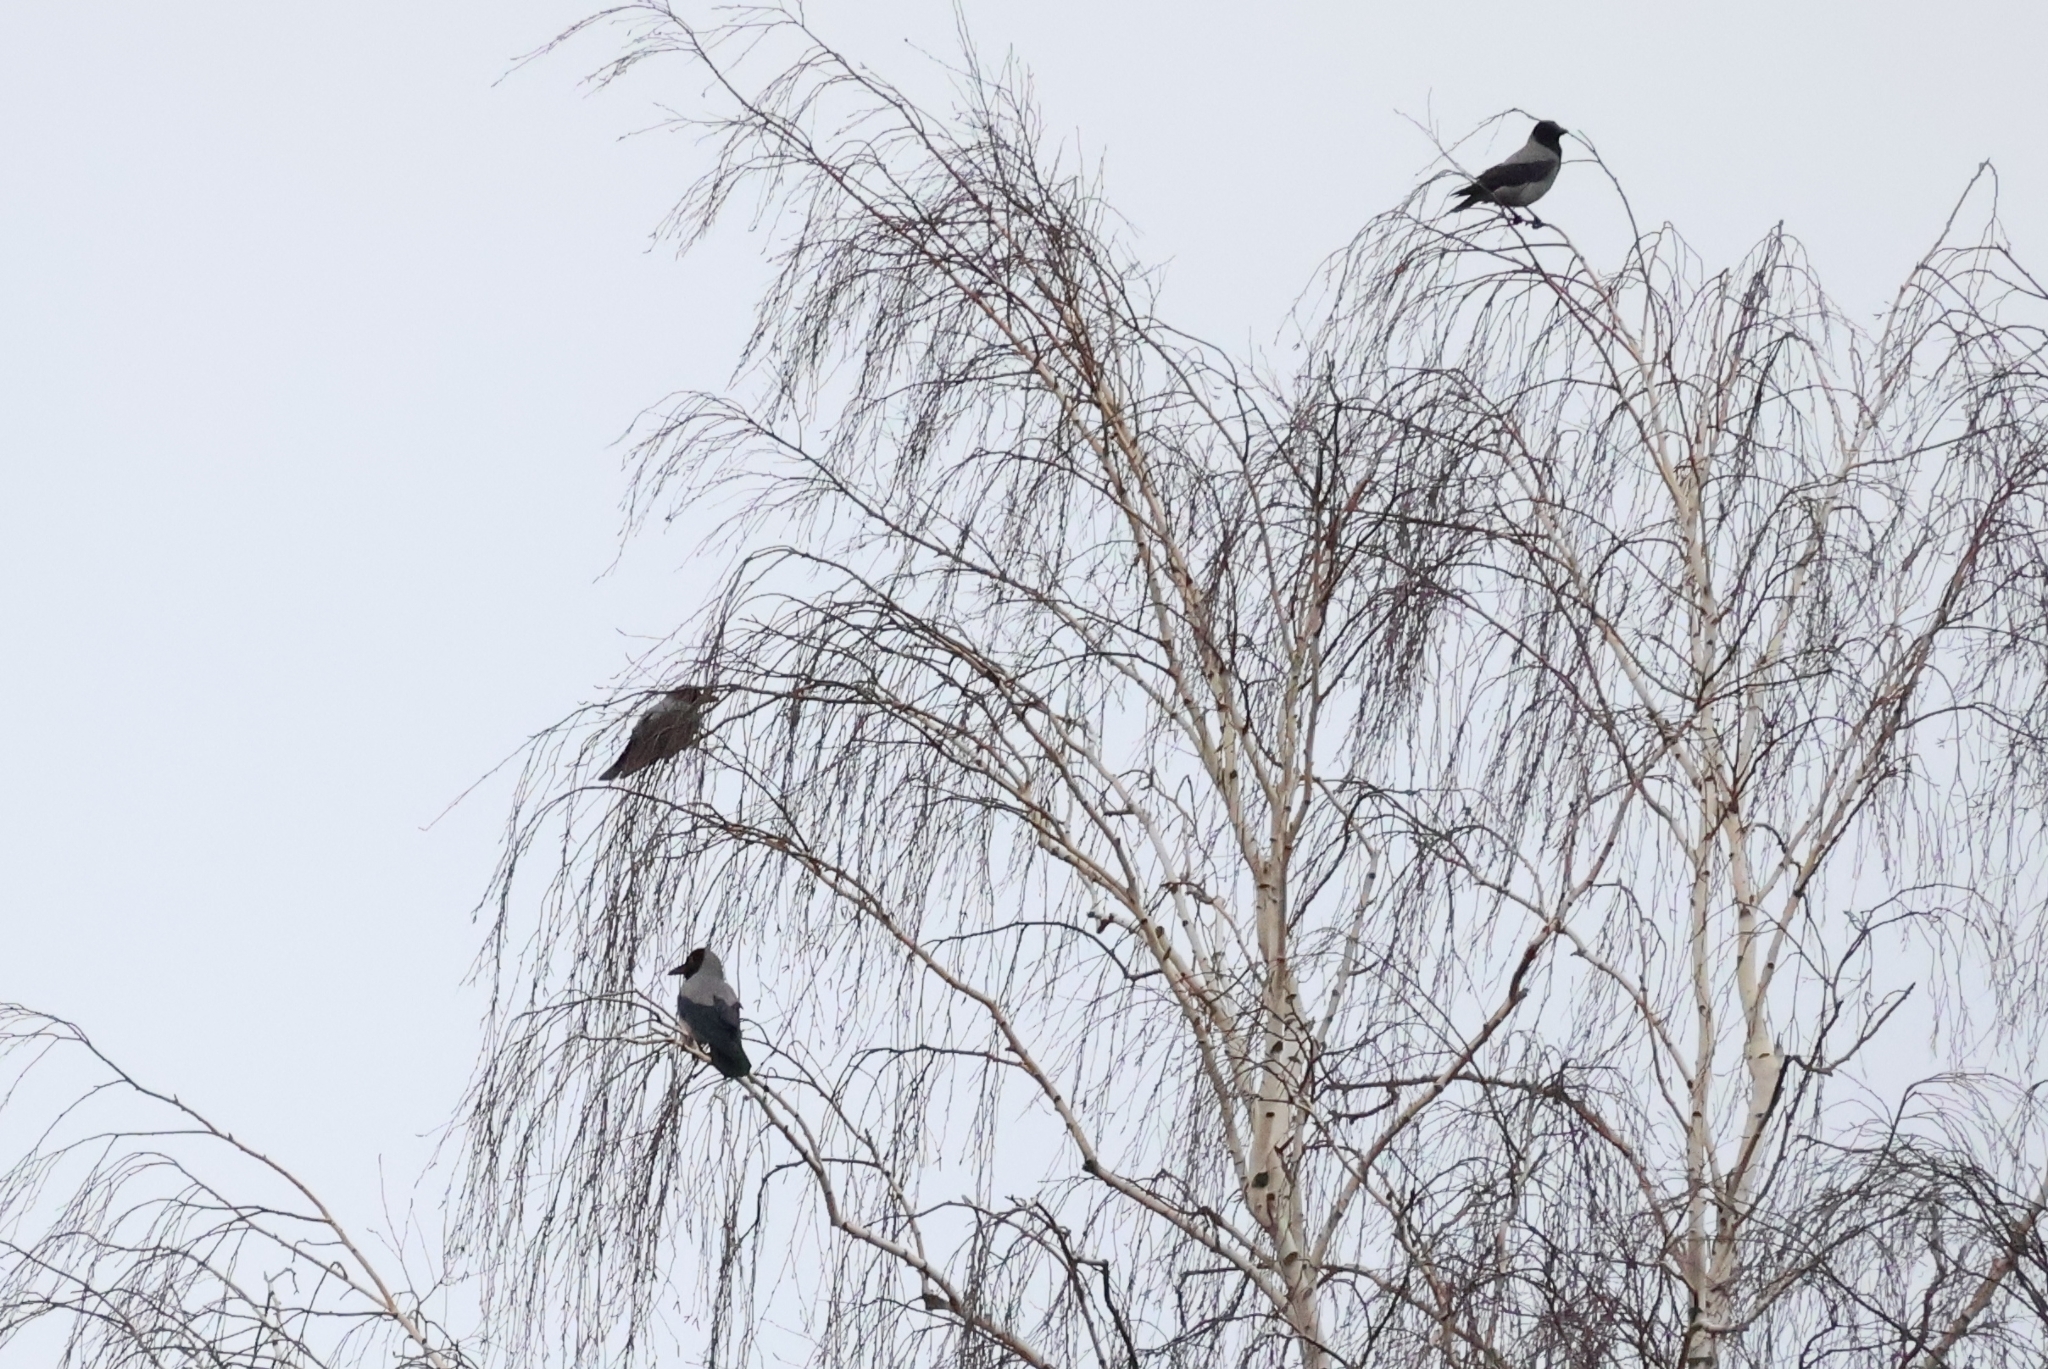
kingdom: Animalia
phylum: Chordata
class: Aves
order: Passeriformes
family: Corvidae
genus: Corvus
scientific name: Corvus cornix
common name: Hooded crow
